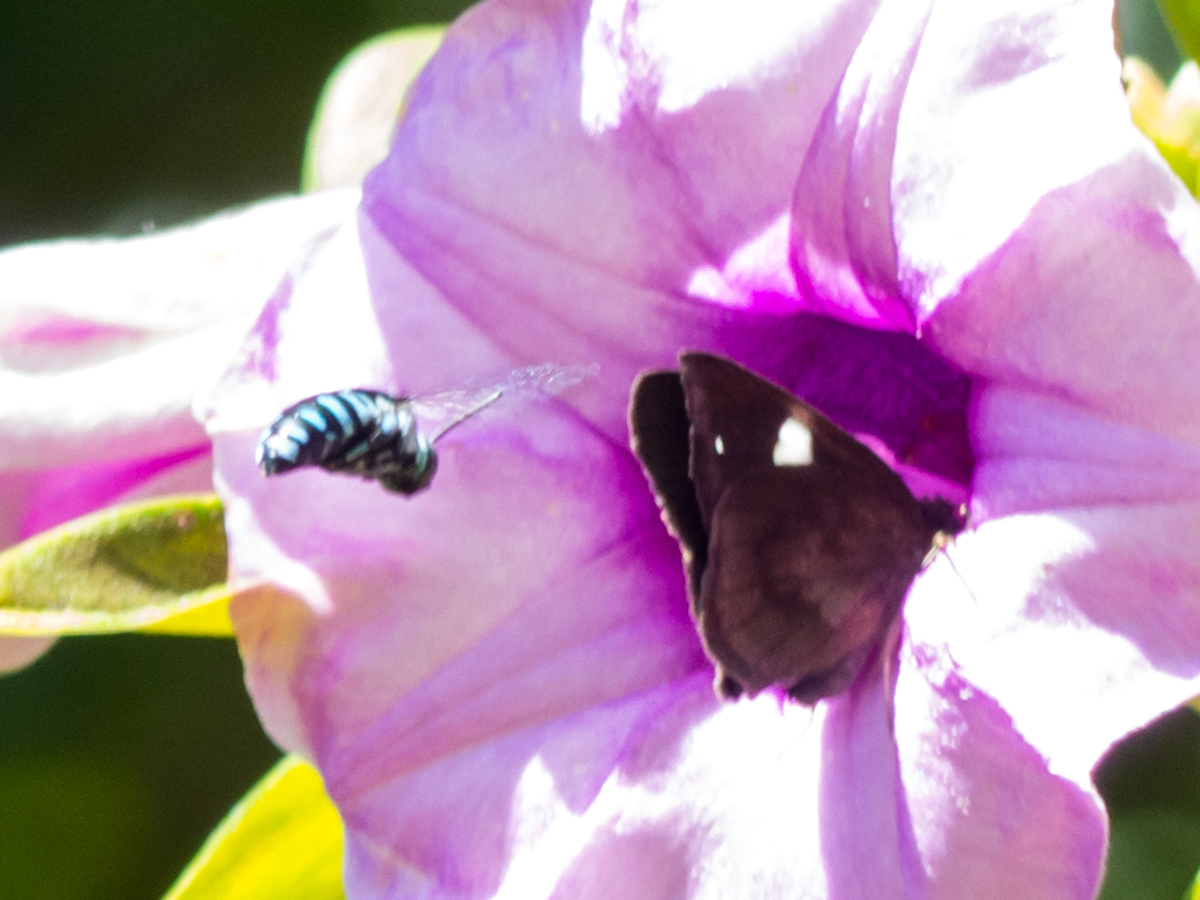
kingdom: Animalia
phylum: Arthropoda
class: Insecta
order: Lepidoptera
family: Hesperiidae
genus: Notocrypta
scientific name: Notocrypta paralysos
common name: Common banded demon
